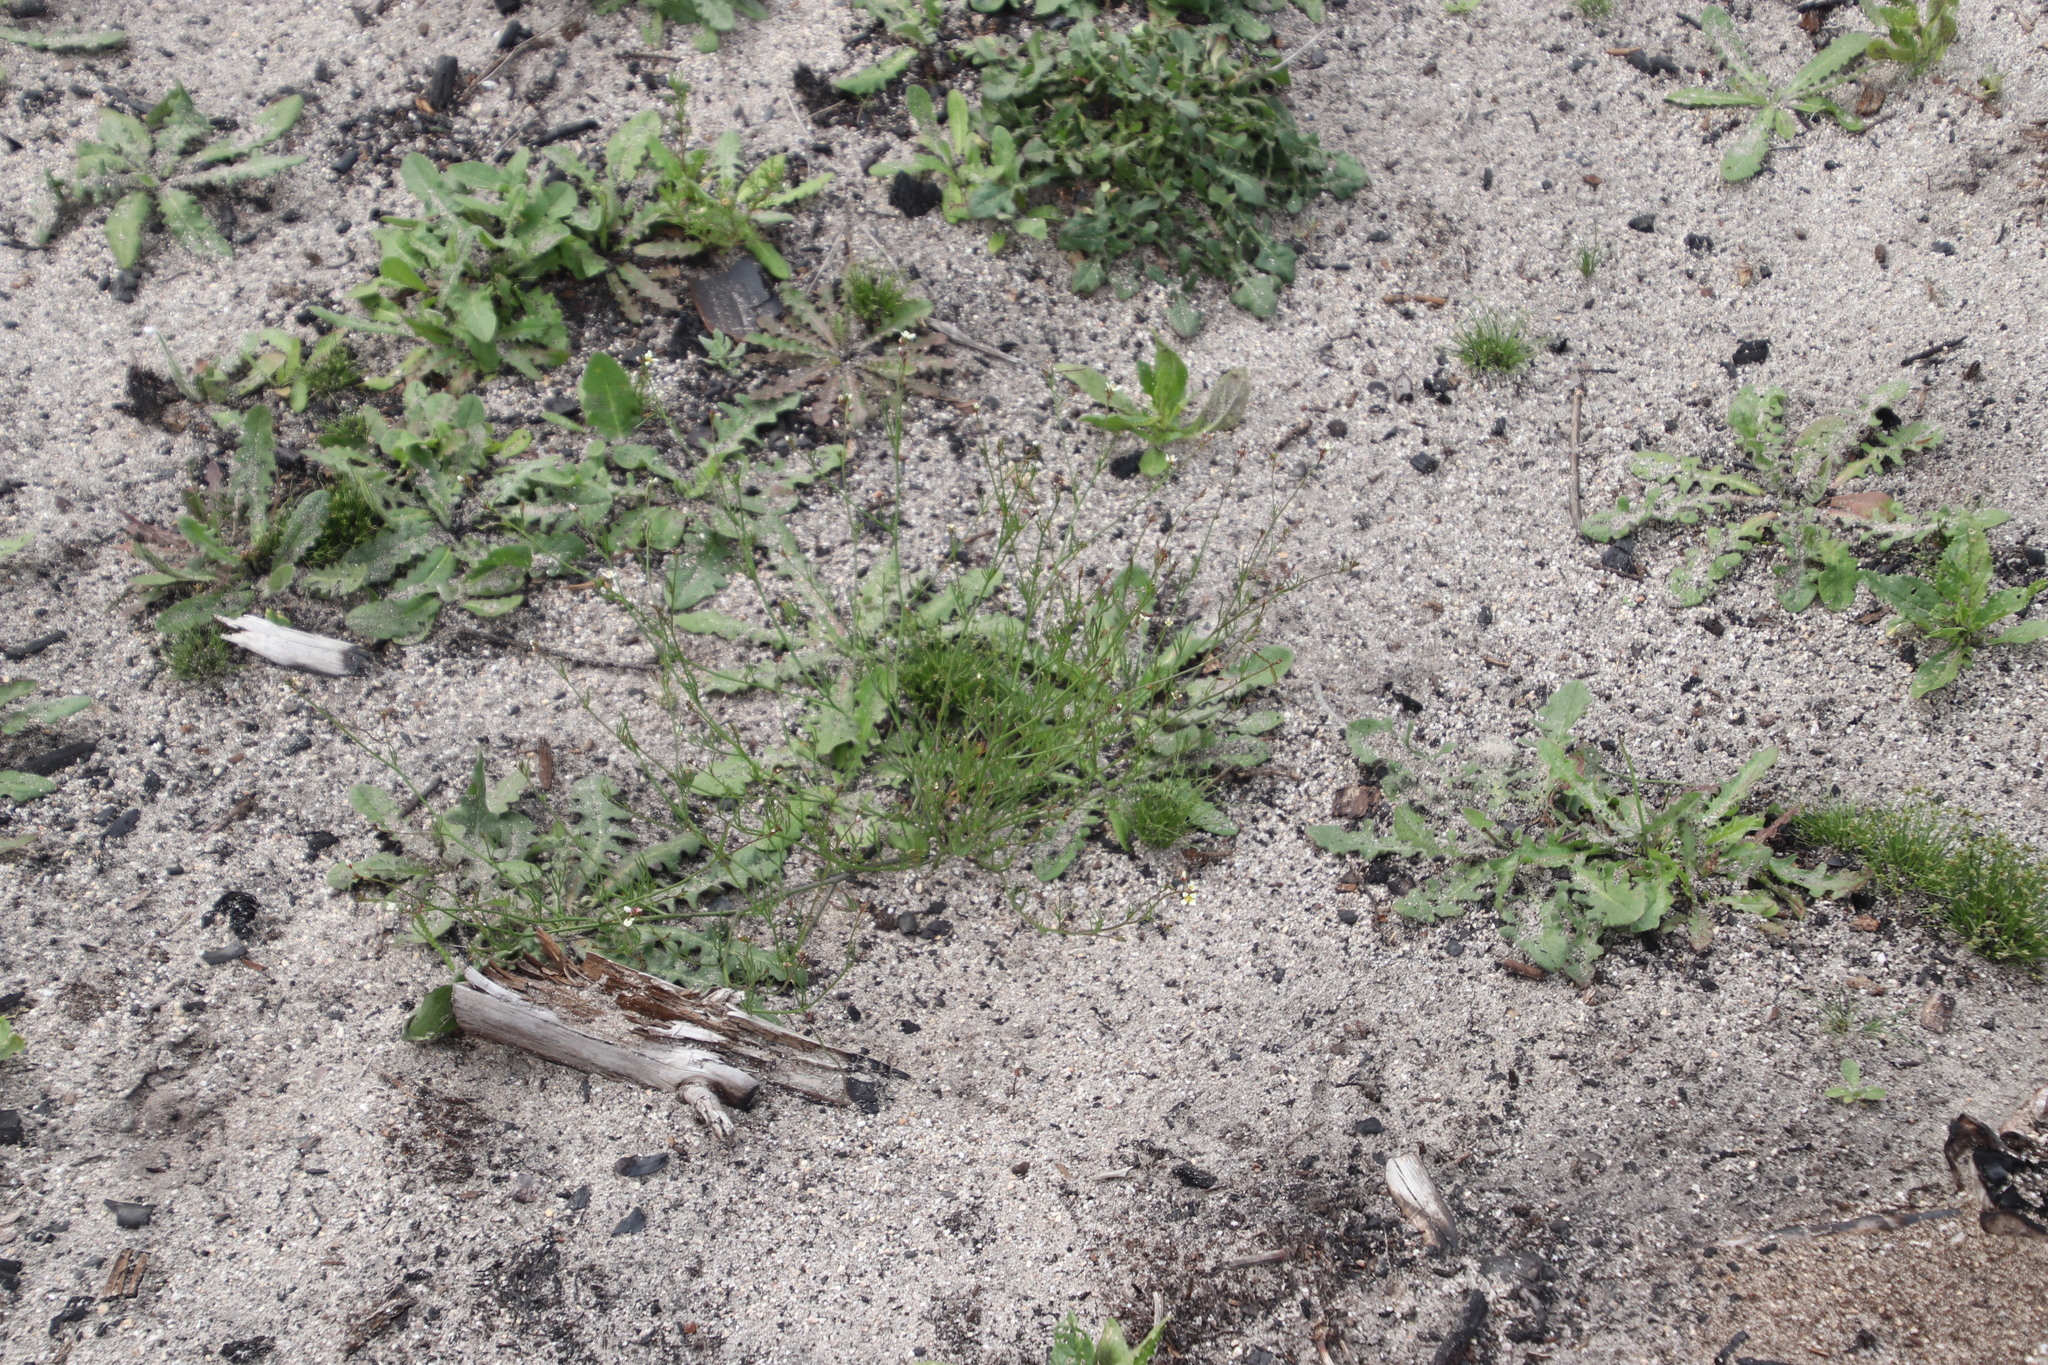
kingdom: Plantae
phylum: Tracheophyta
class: Magnoliopsida
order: Brassicales
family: Brassicaceae
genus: Heliophila
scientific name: Heliophila pendula
